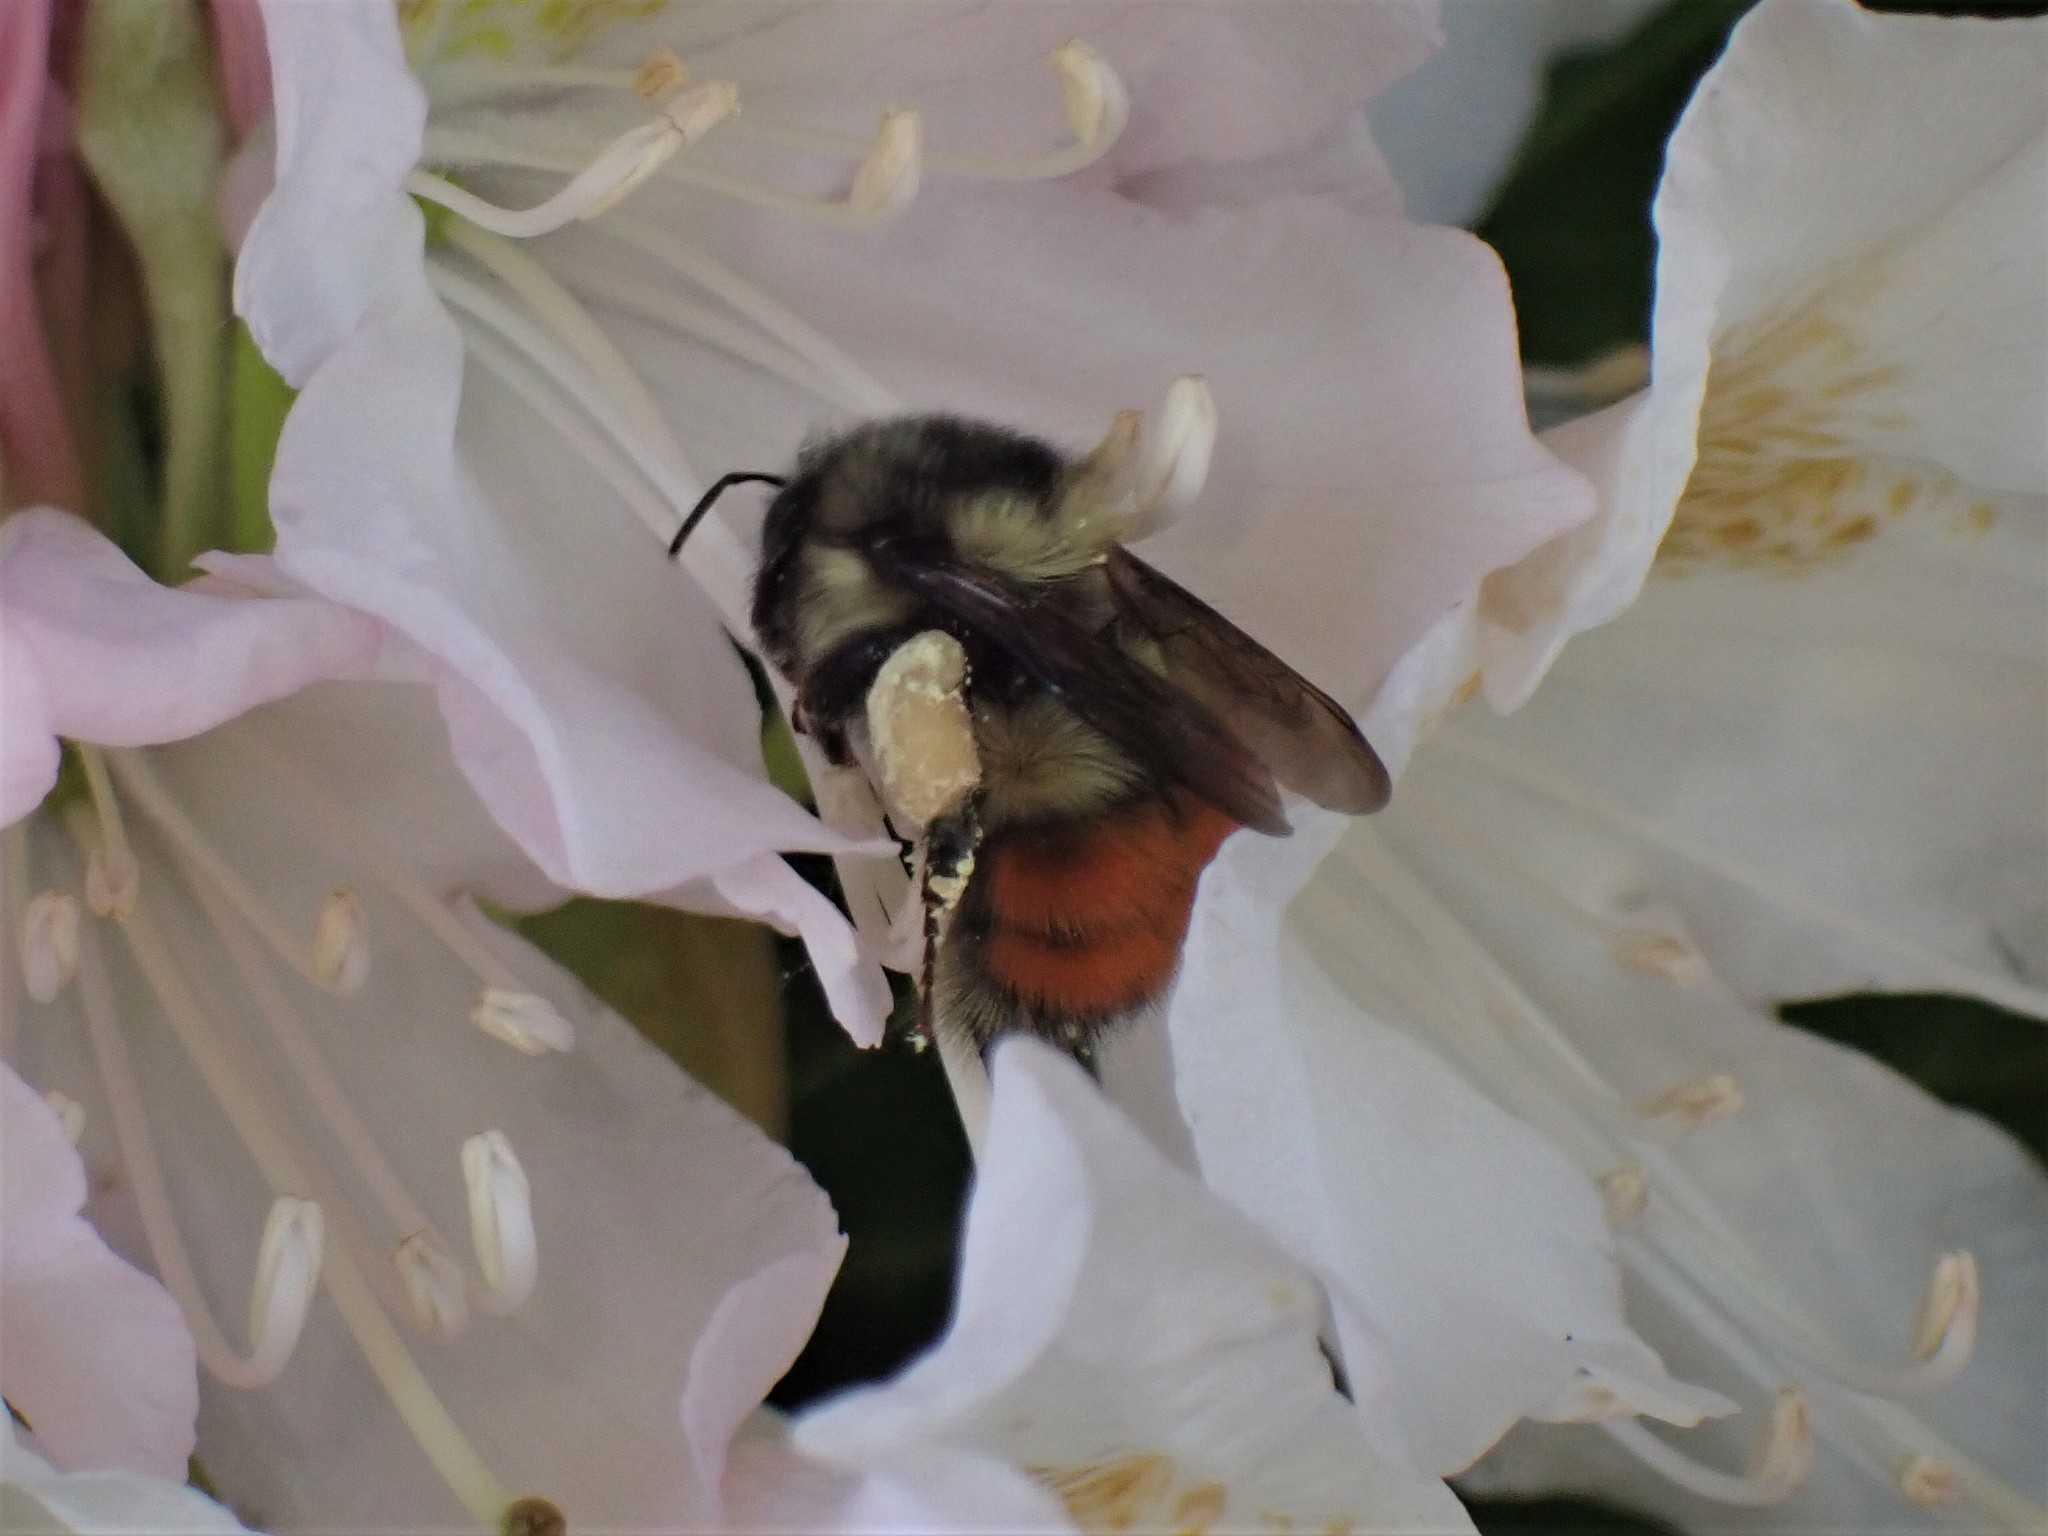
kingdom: Animalia
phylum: Arthropoda
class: Insecta
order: Hymenoptera
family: Apidae
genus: Bombus
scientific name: Bombus melanopygus
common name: Black tail bumble bee
